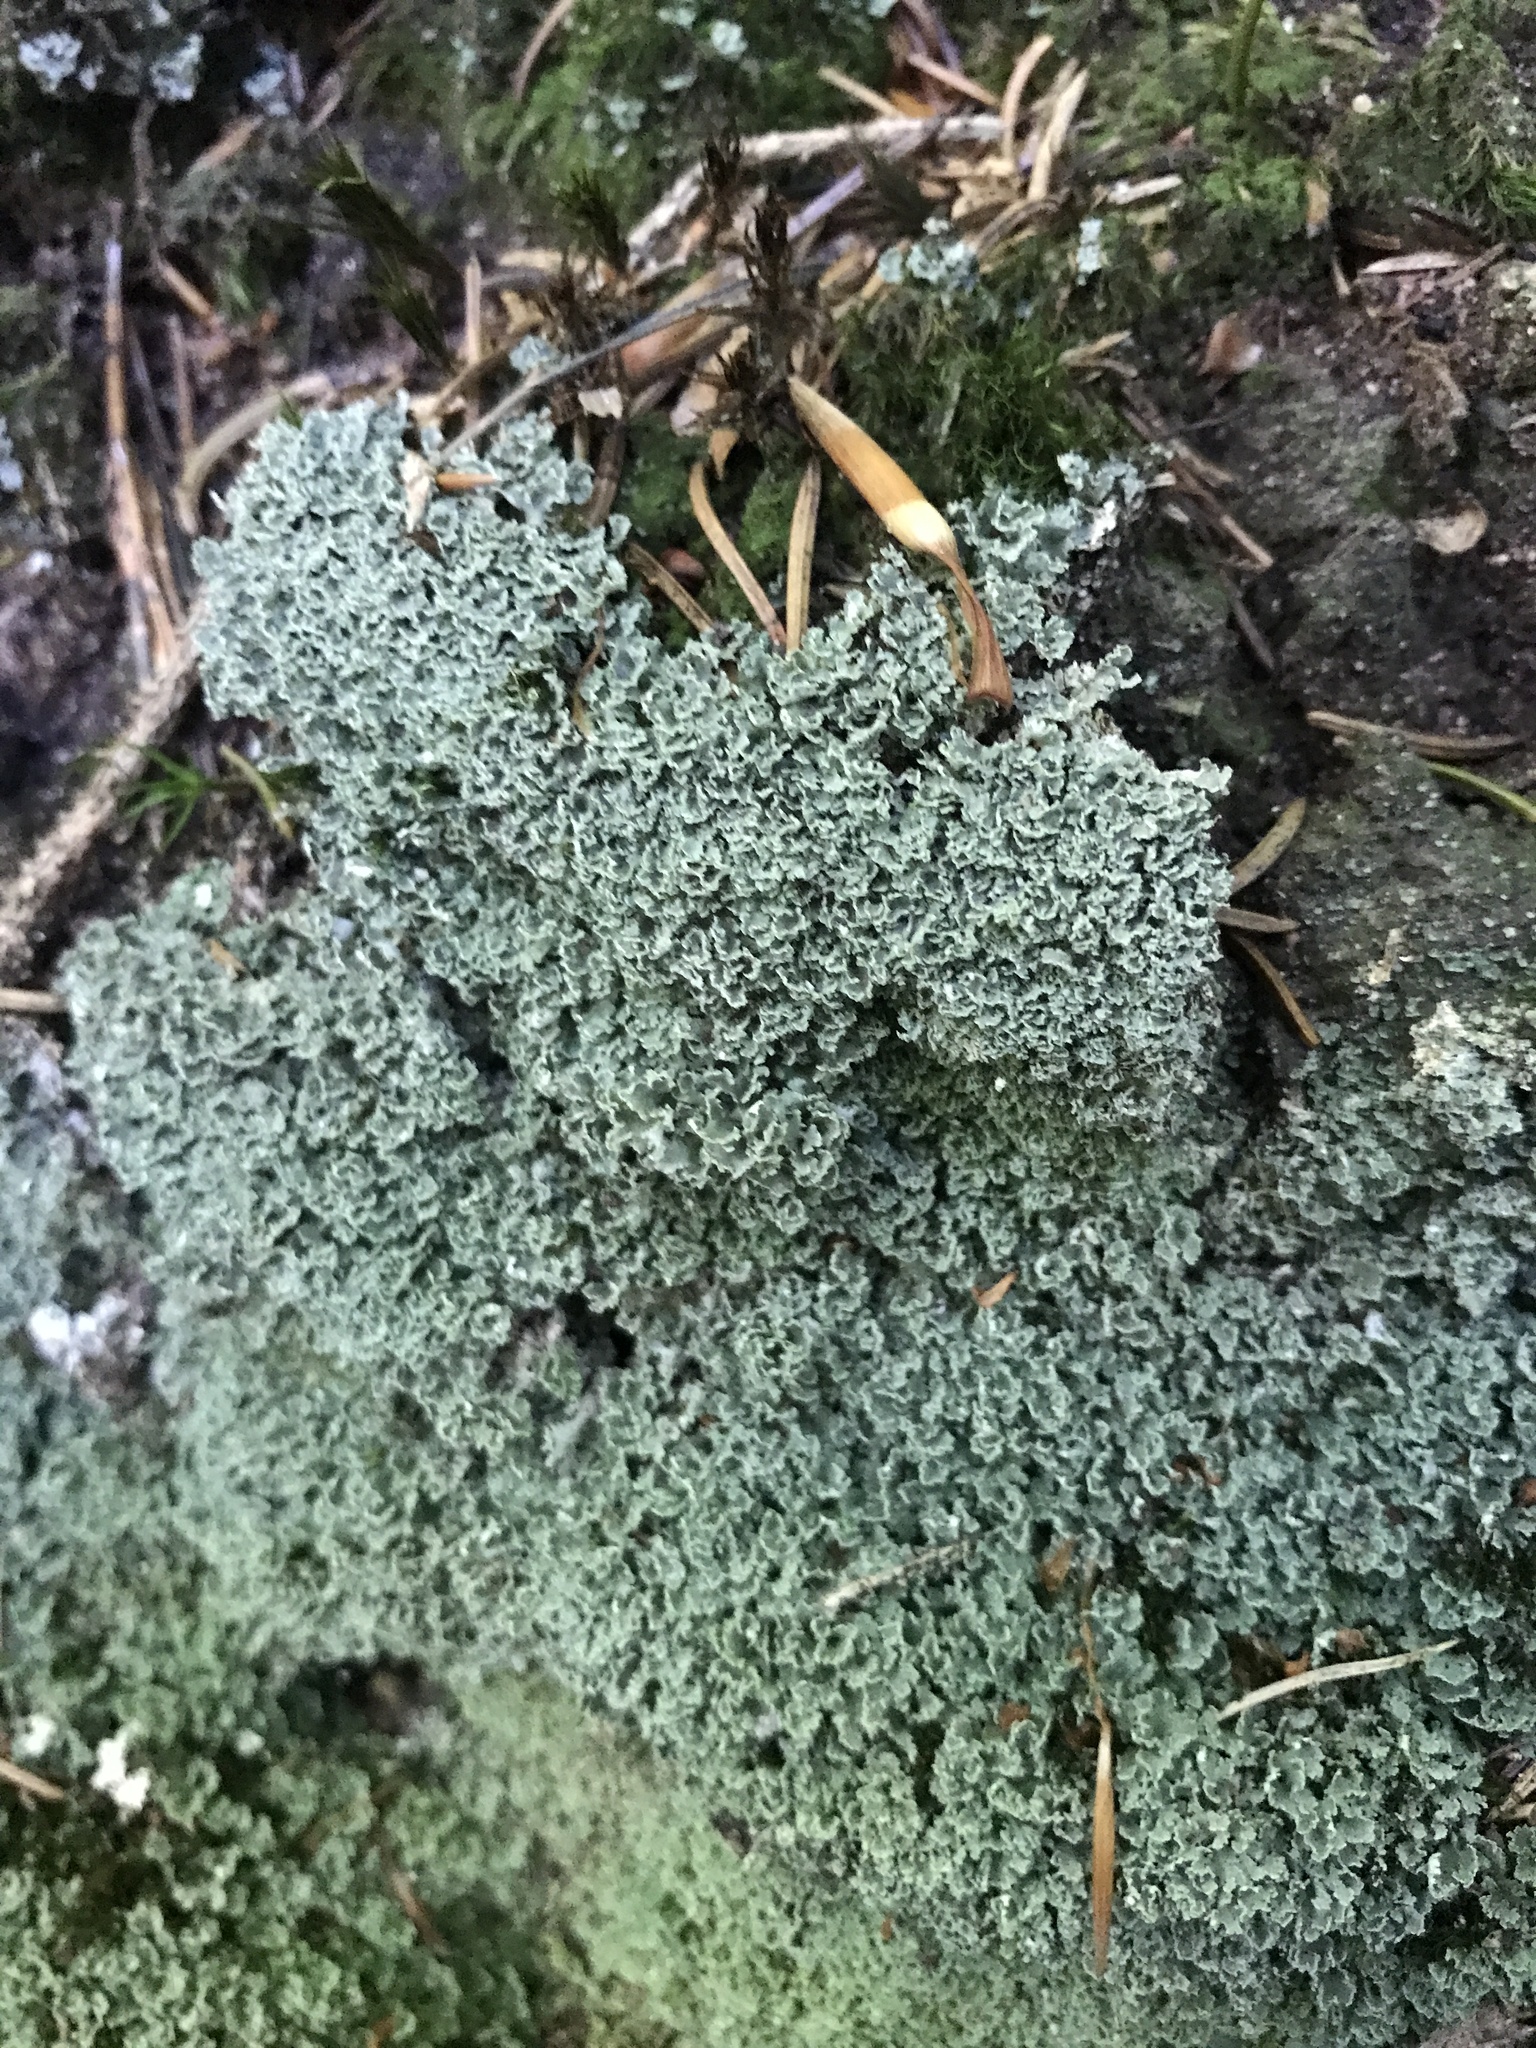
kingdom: Fungi
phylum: Ascomycota
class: Lecanoromycetes
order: Lecanorales
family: Cladoniaceae
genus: Cladonia
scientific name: Cladonia
